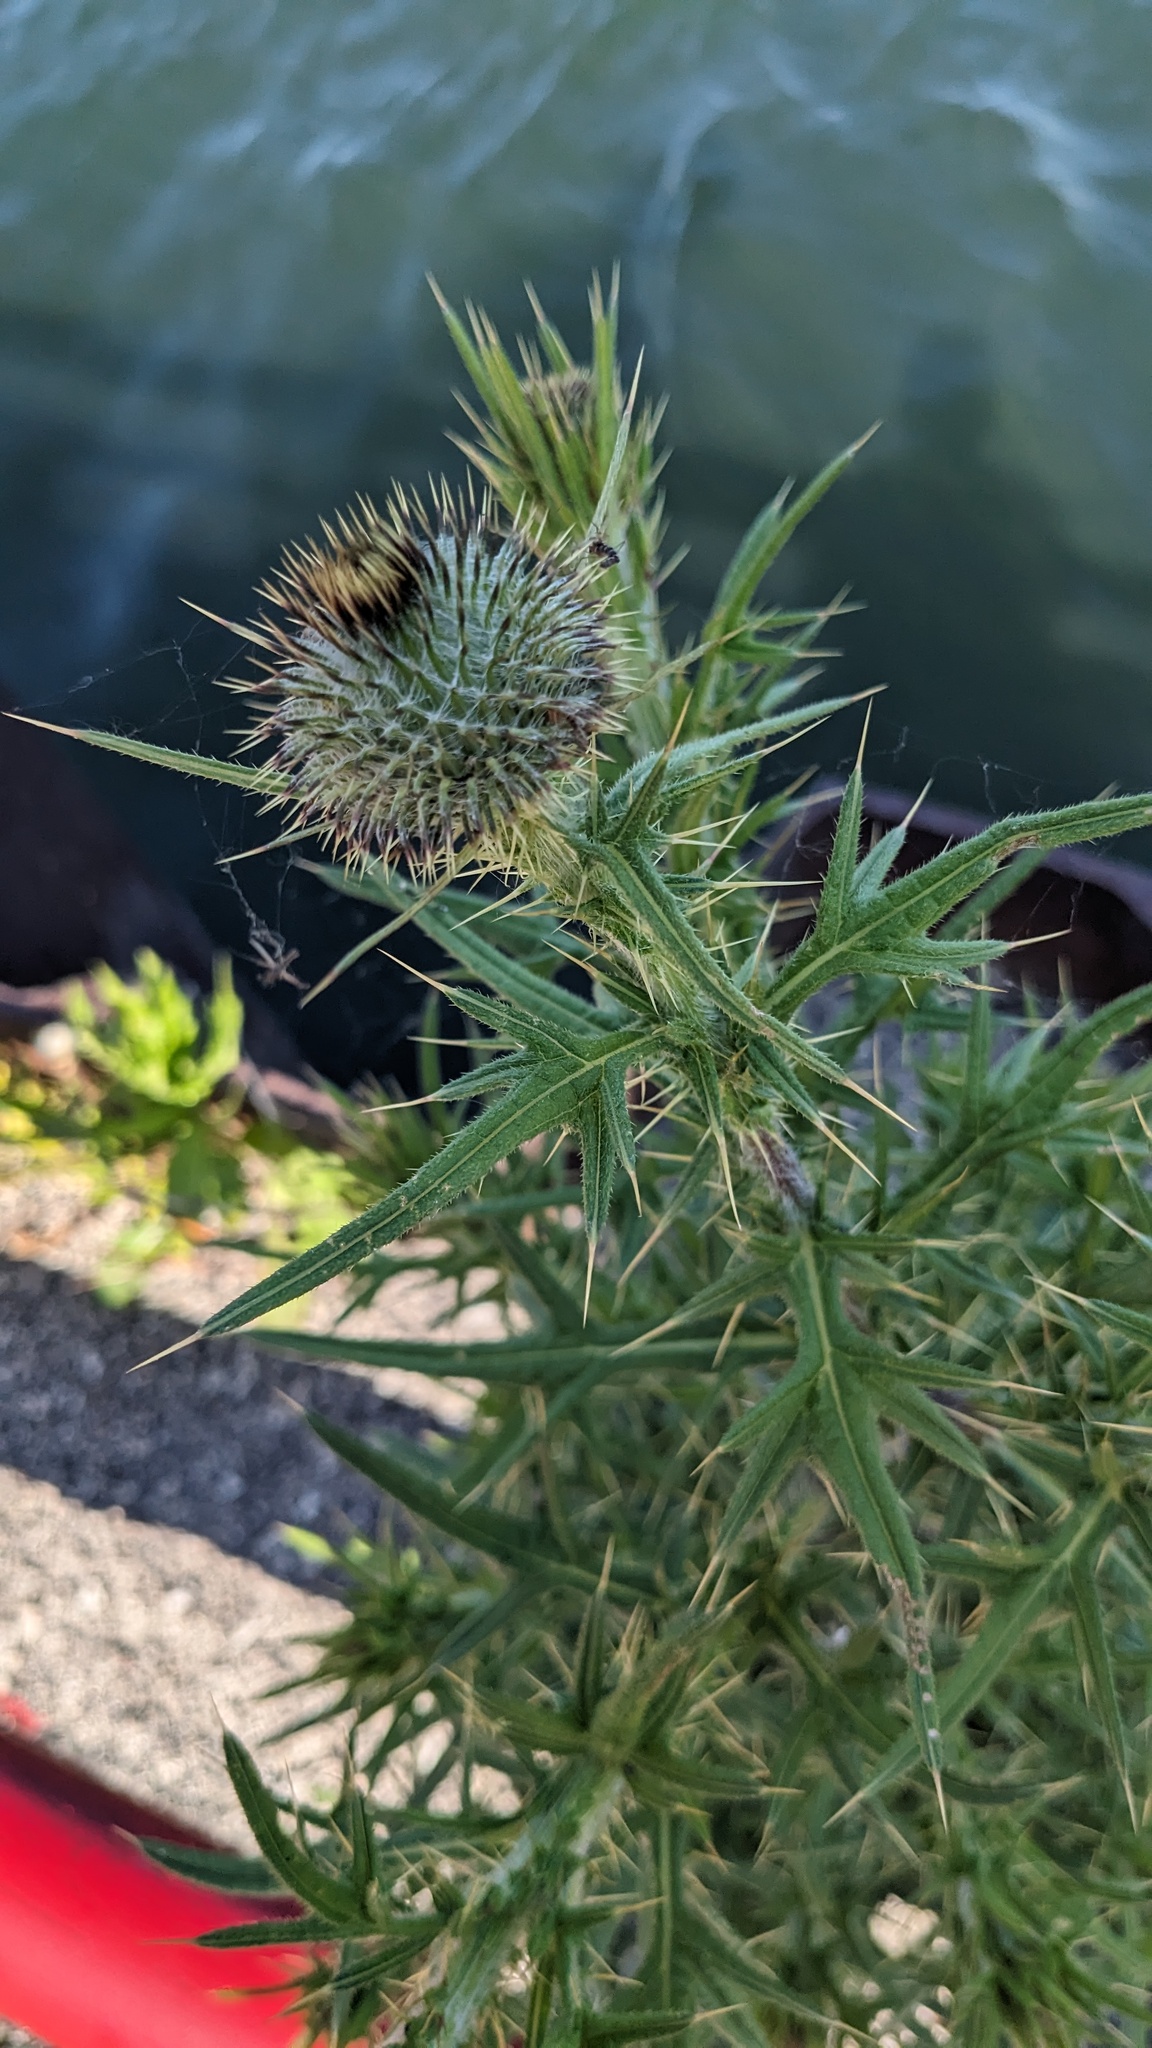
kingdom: Plantae
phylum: Tracheophyta
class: Magnoliopsida
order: Asterales
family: Asteraceae
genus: Cirsium
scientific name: Cirsium vulgare
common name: Bull thistle
